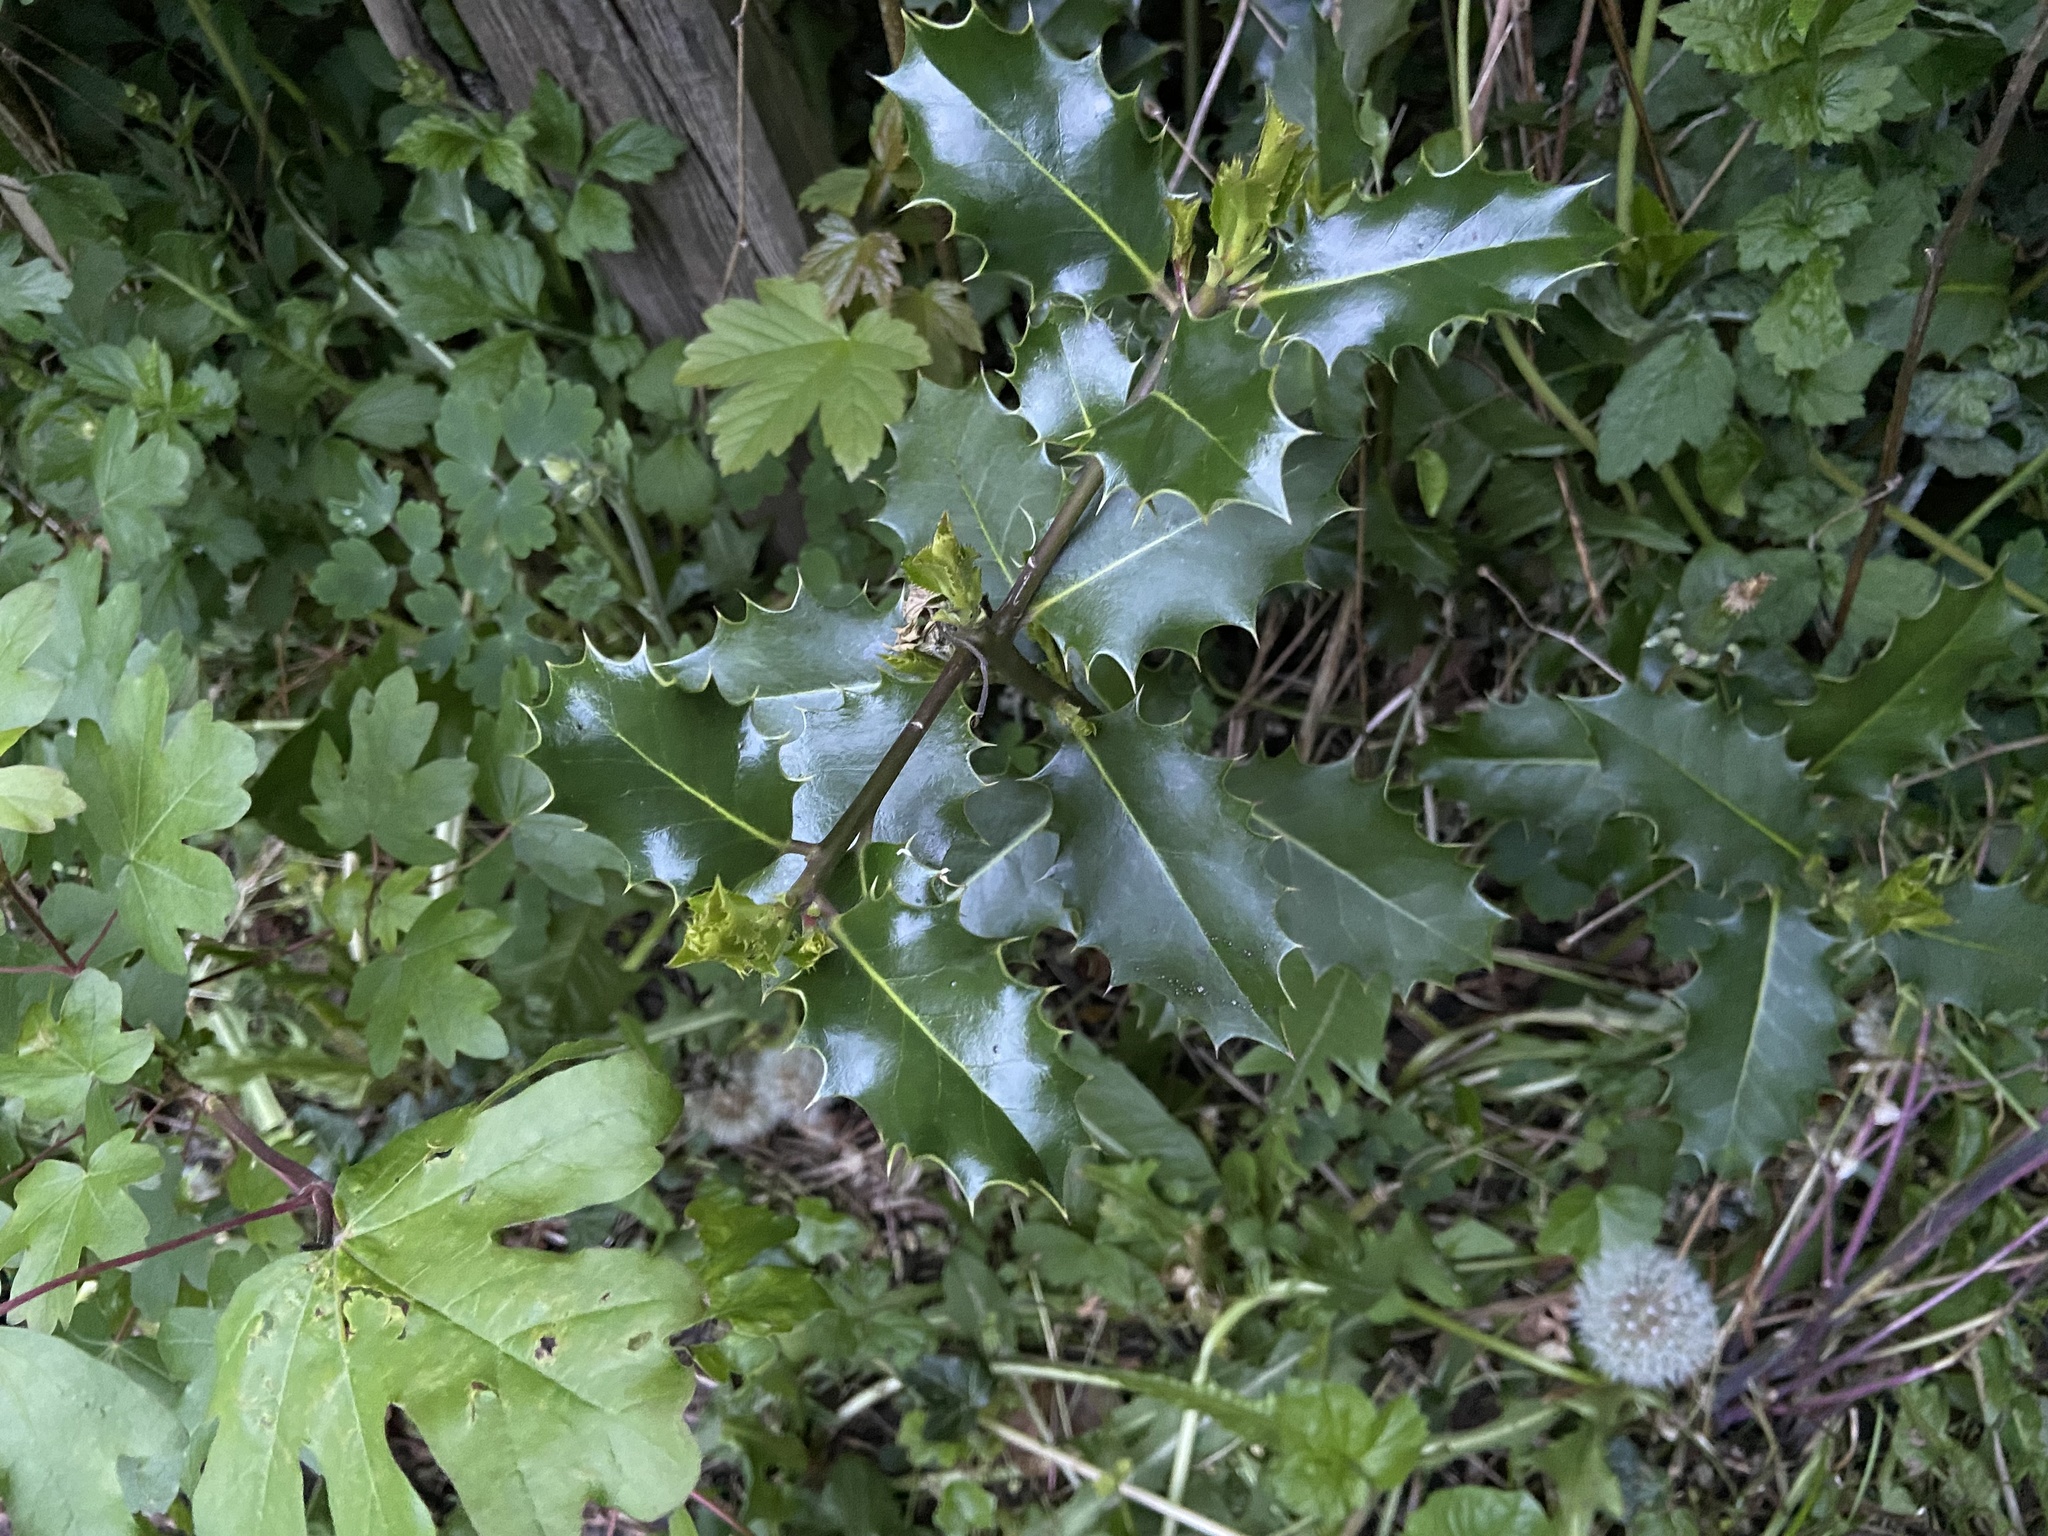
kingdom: Plantae
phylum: Tracheophyta
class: Magnoliopsida
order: Aquifoliales
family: Aquifoliaceae
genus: Ilex
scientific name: Ilex aquifolium
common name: English holly
